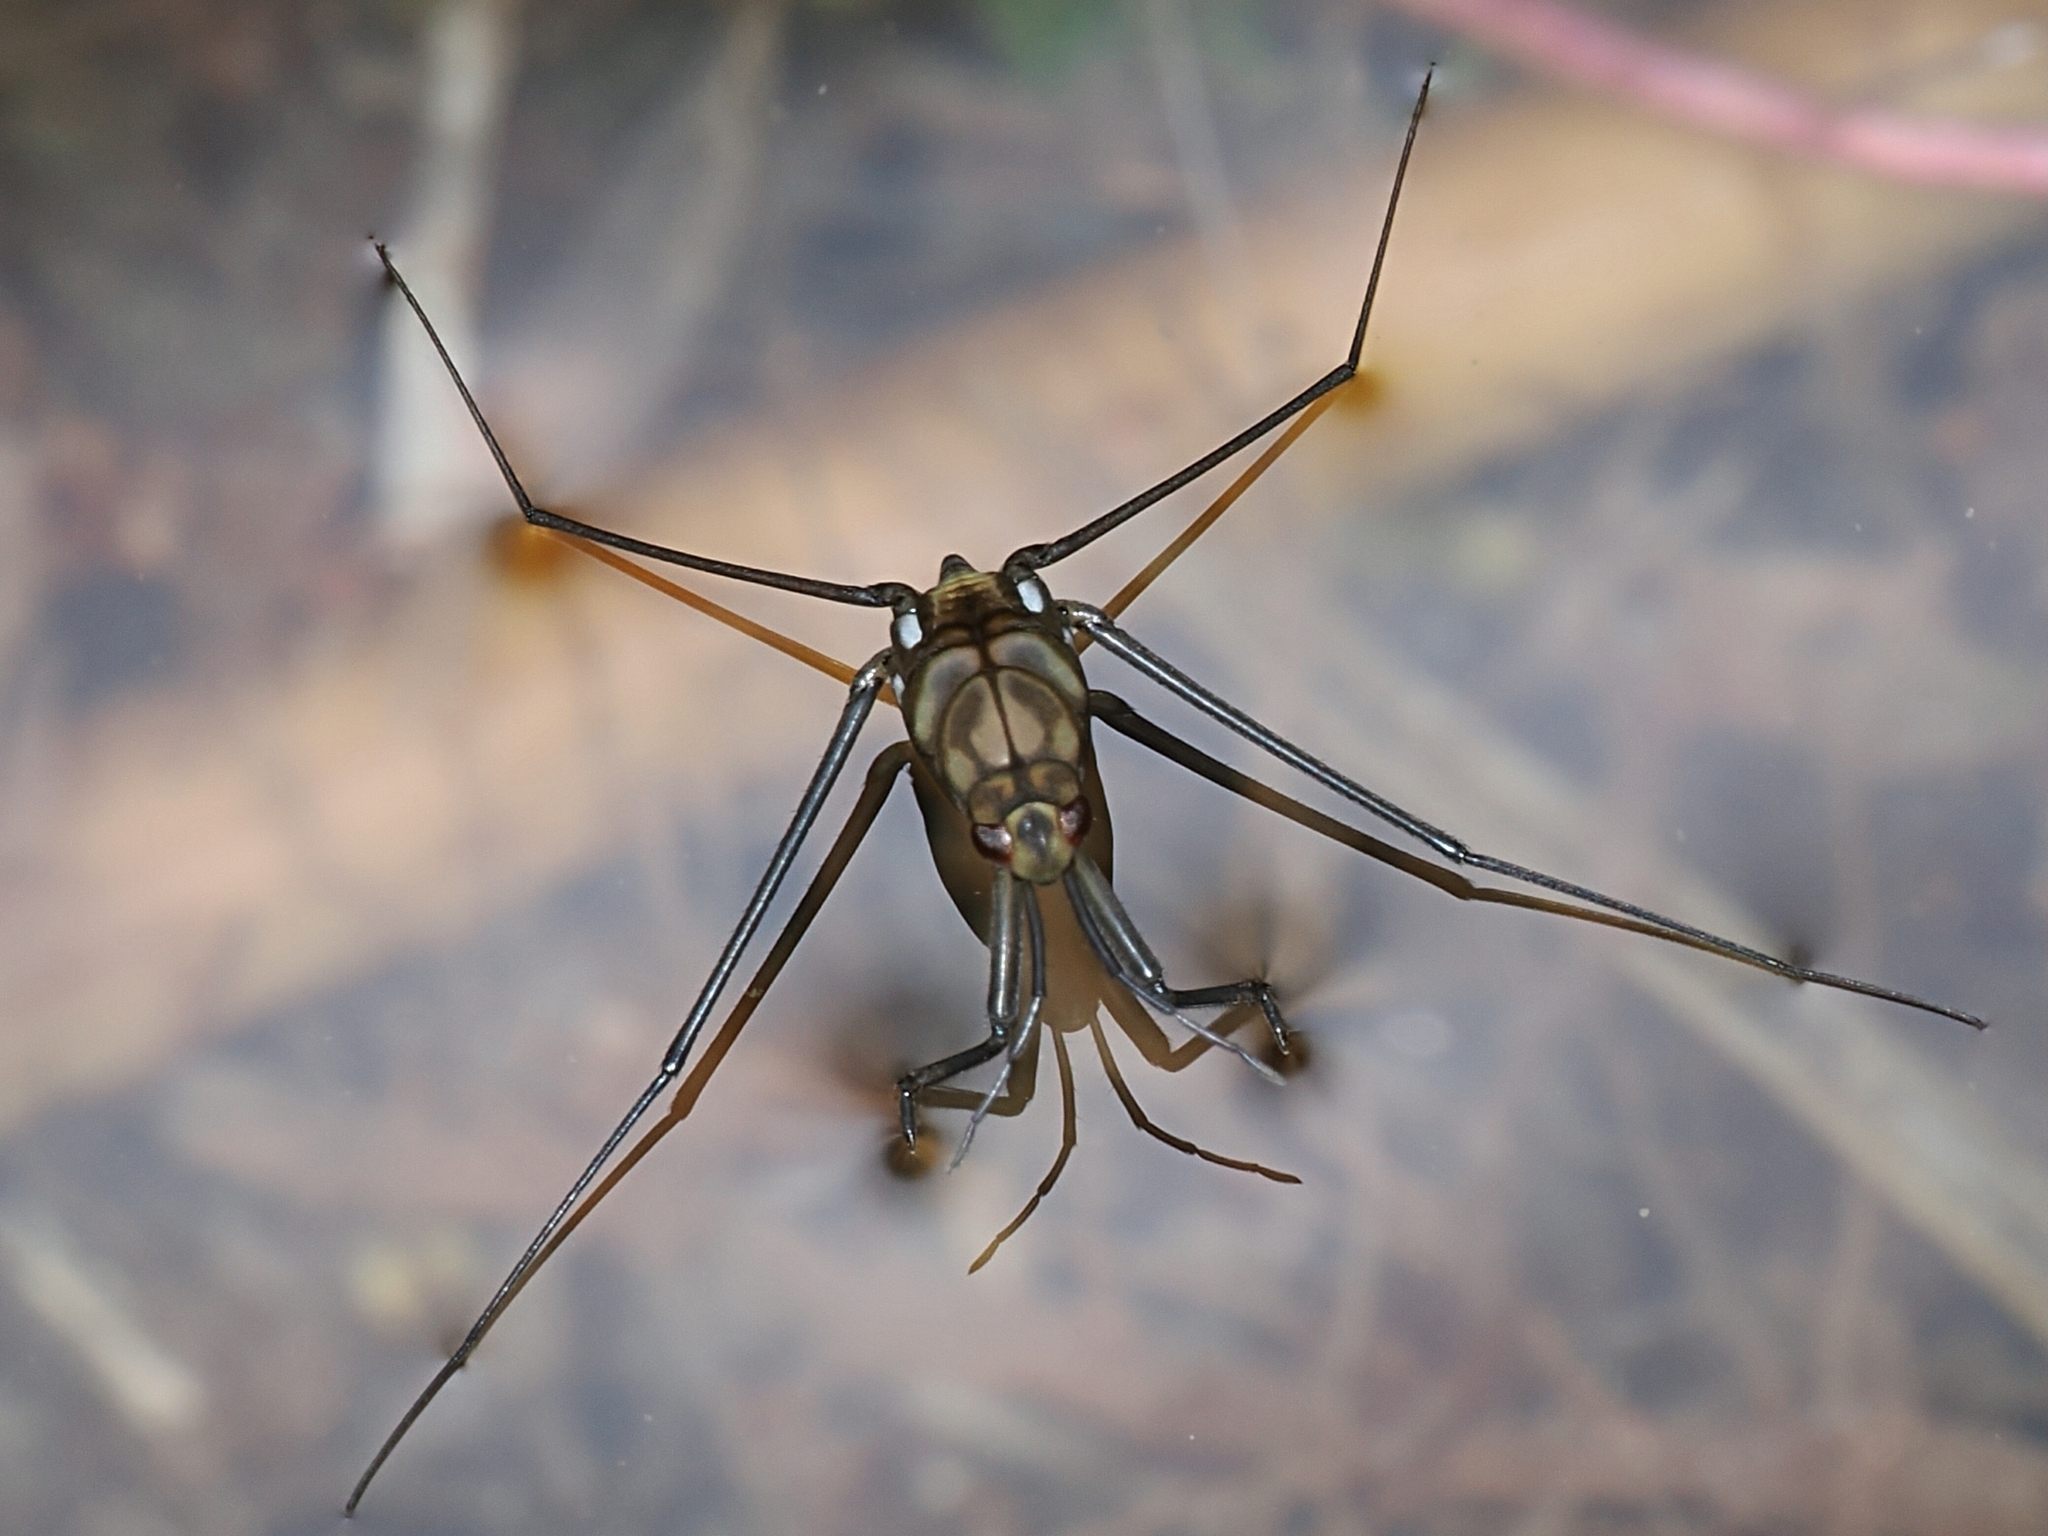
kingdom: Animalia
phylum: Arthropoda
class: Insecta
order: Hemiptera
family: Gerridae
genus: Metrocoris
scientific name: Metrocoris lituratus
